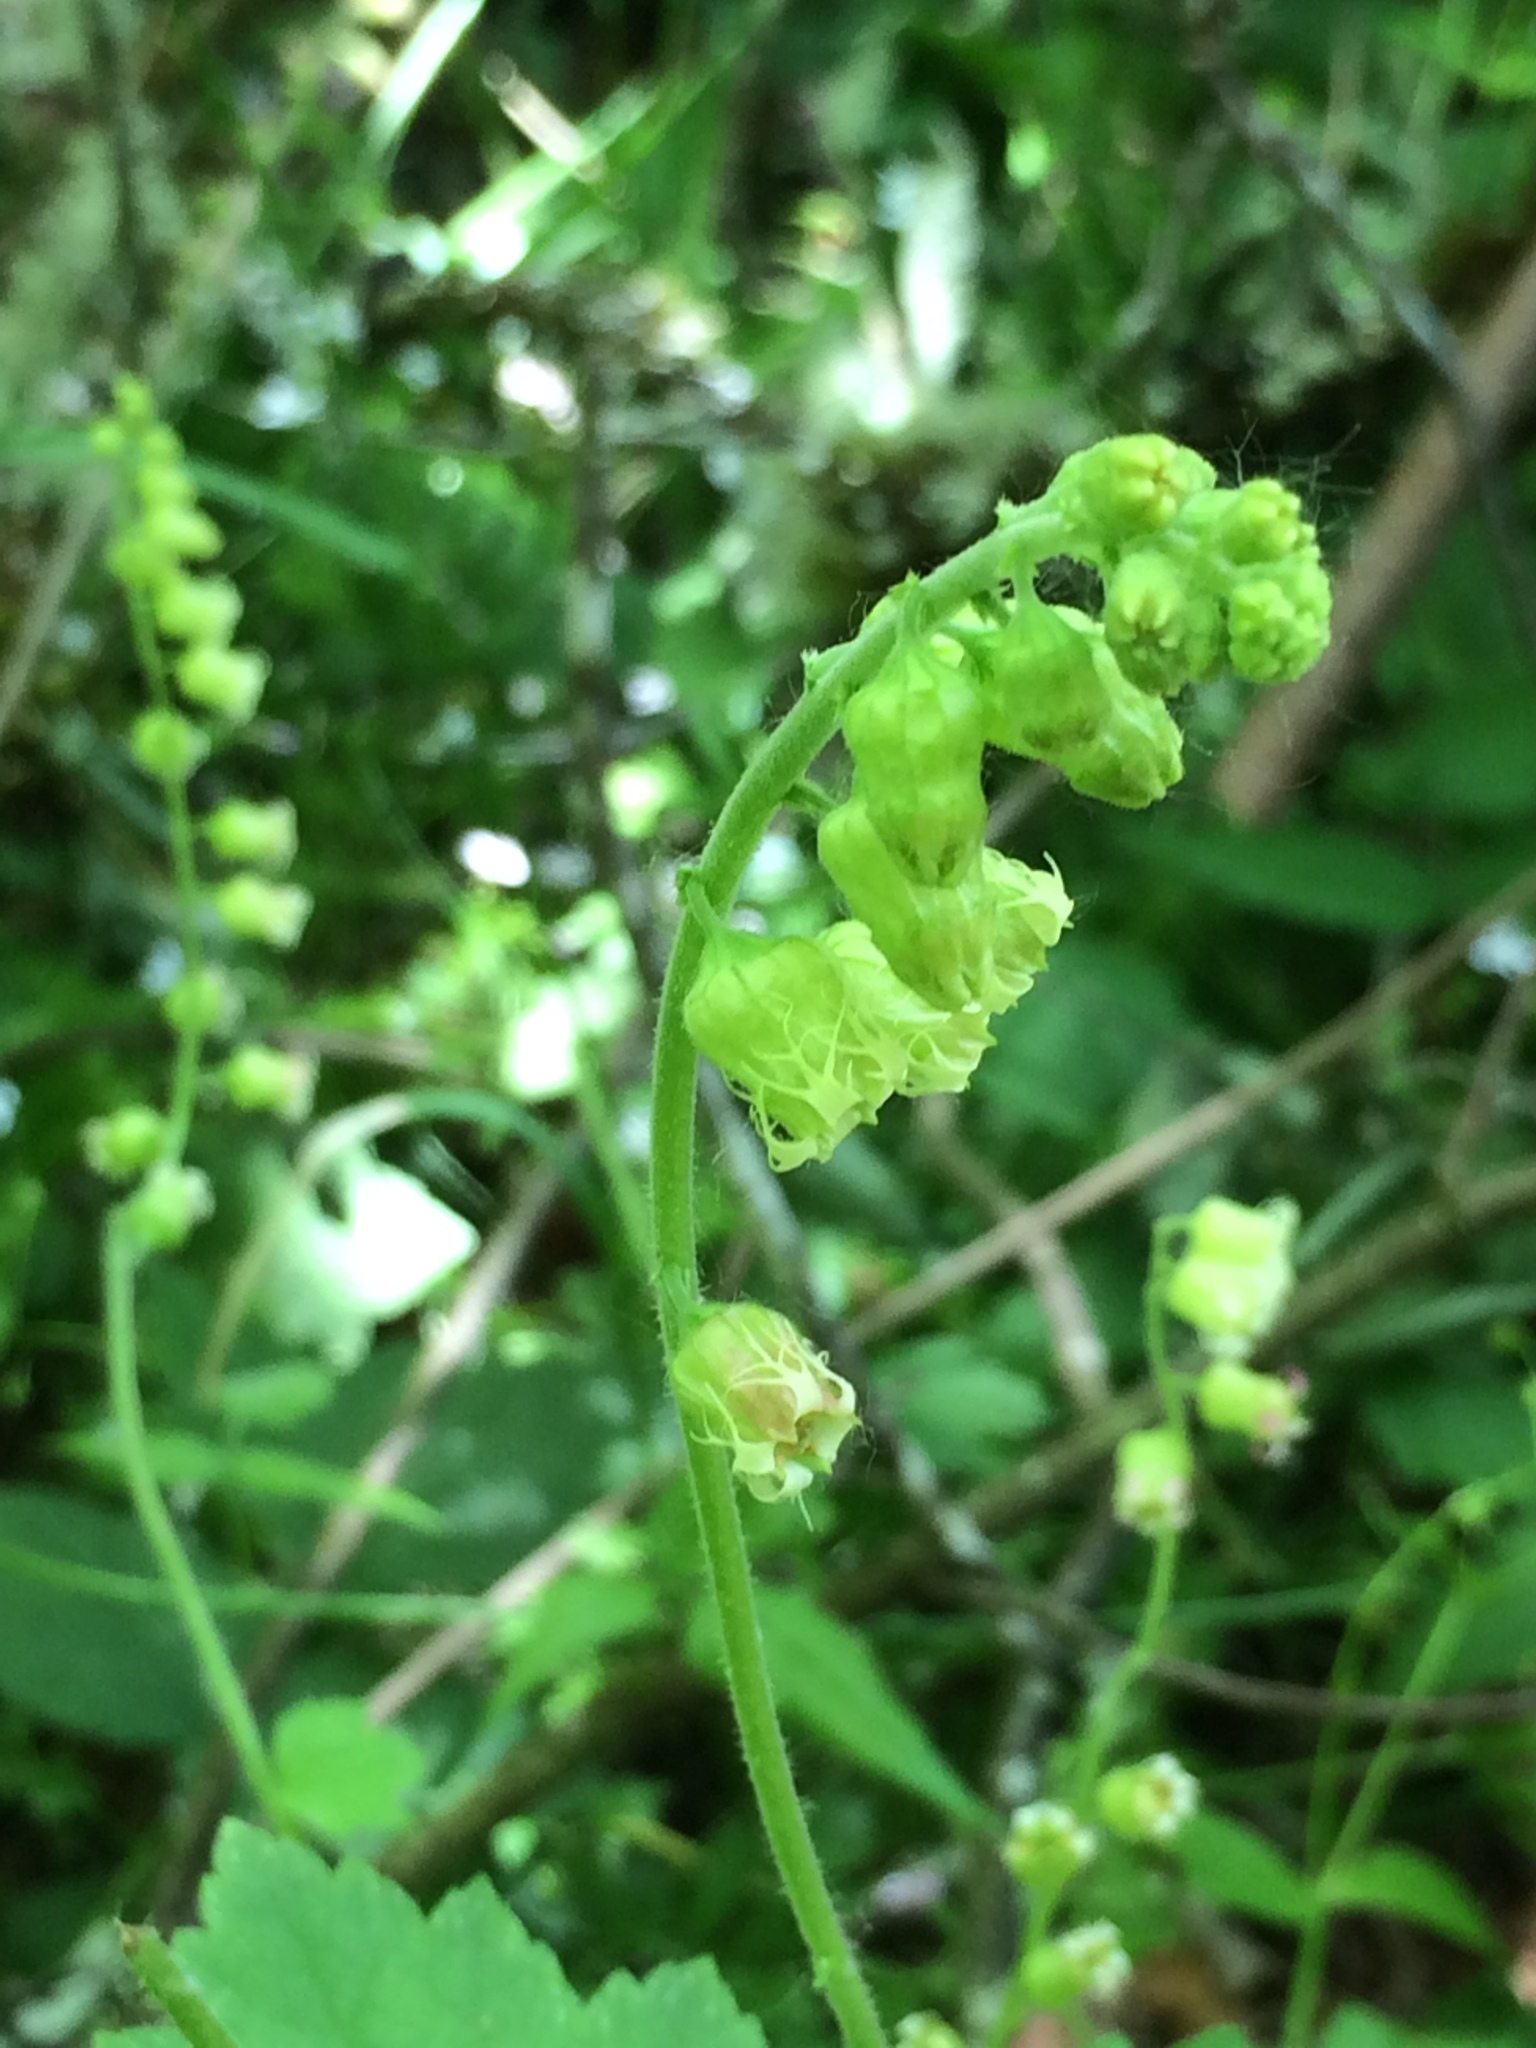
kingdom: Plantae
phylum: Tracheophyta
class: Magnoliopsida
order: Saxifragales
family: Saxifragaceae
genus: Tellima
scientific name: Tellima grandiflora
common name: Fringecups
